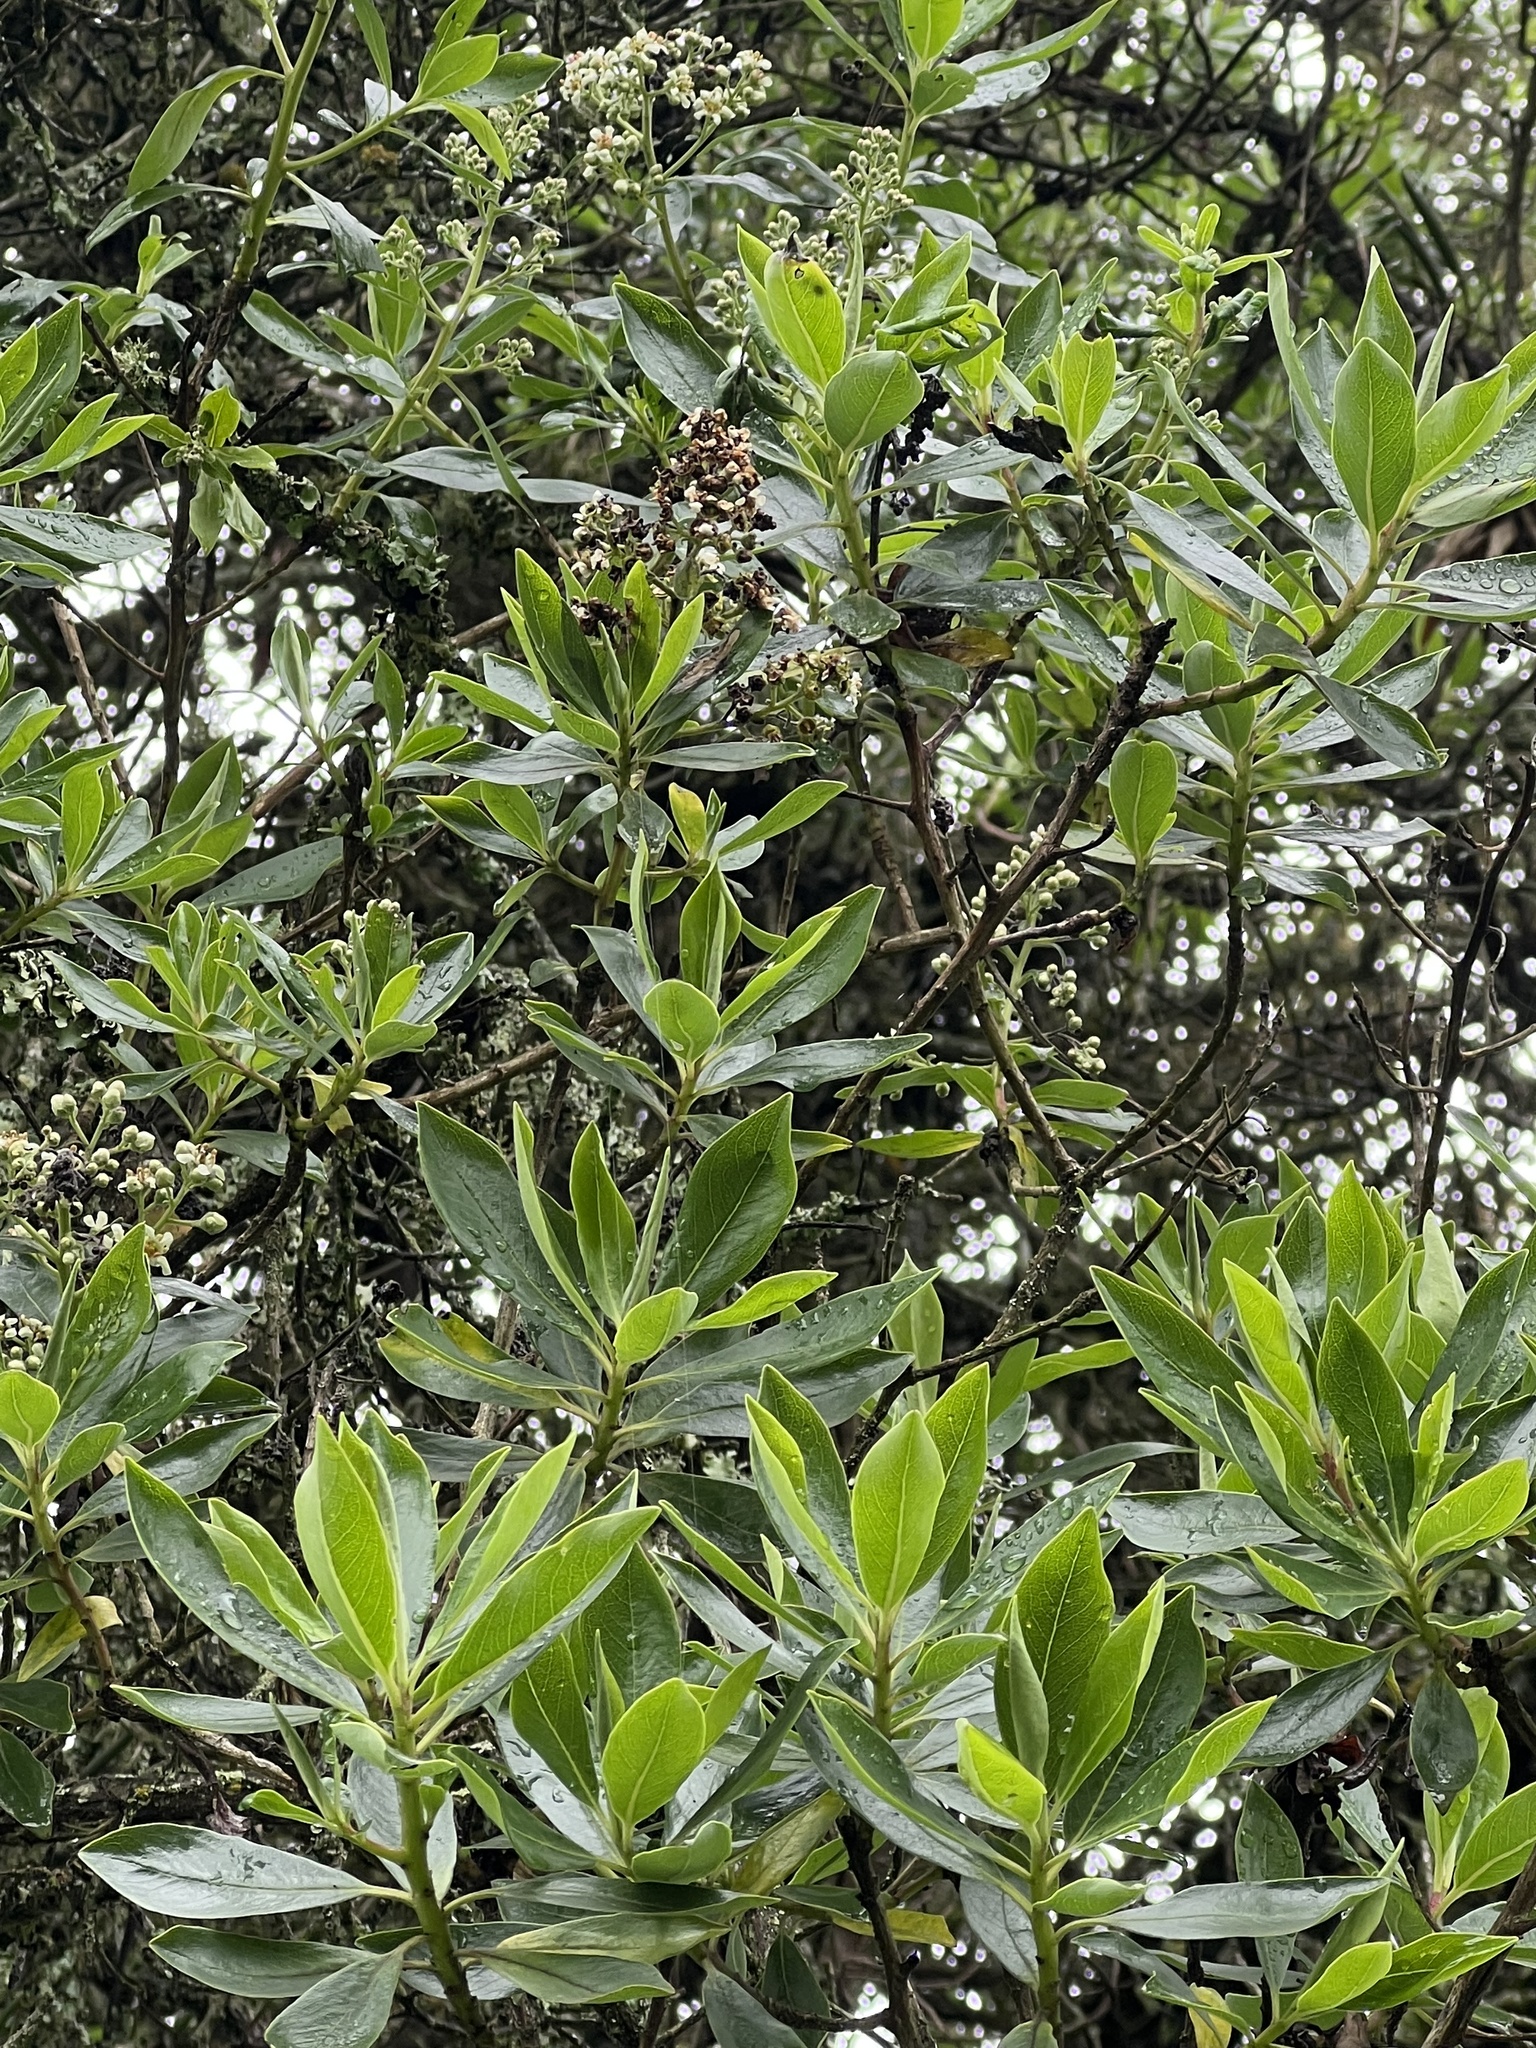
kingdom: Plantae
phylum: Tracheophyta
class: Magnoliopsida
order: Escalloniales
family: Escalloniaceae
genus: Escallonia
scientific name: Escallonia discolor
